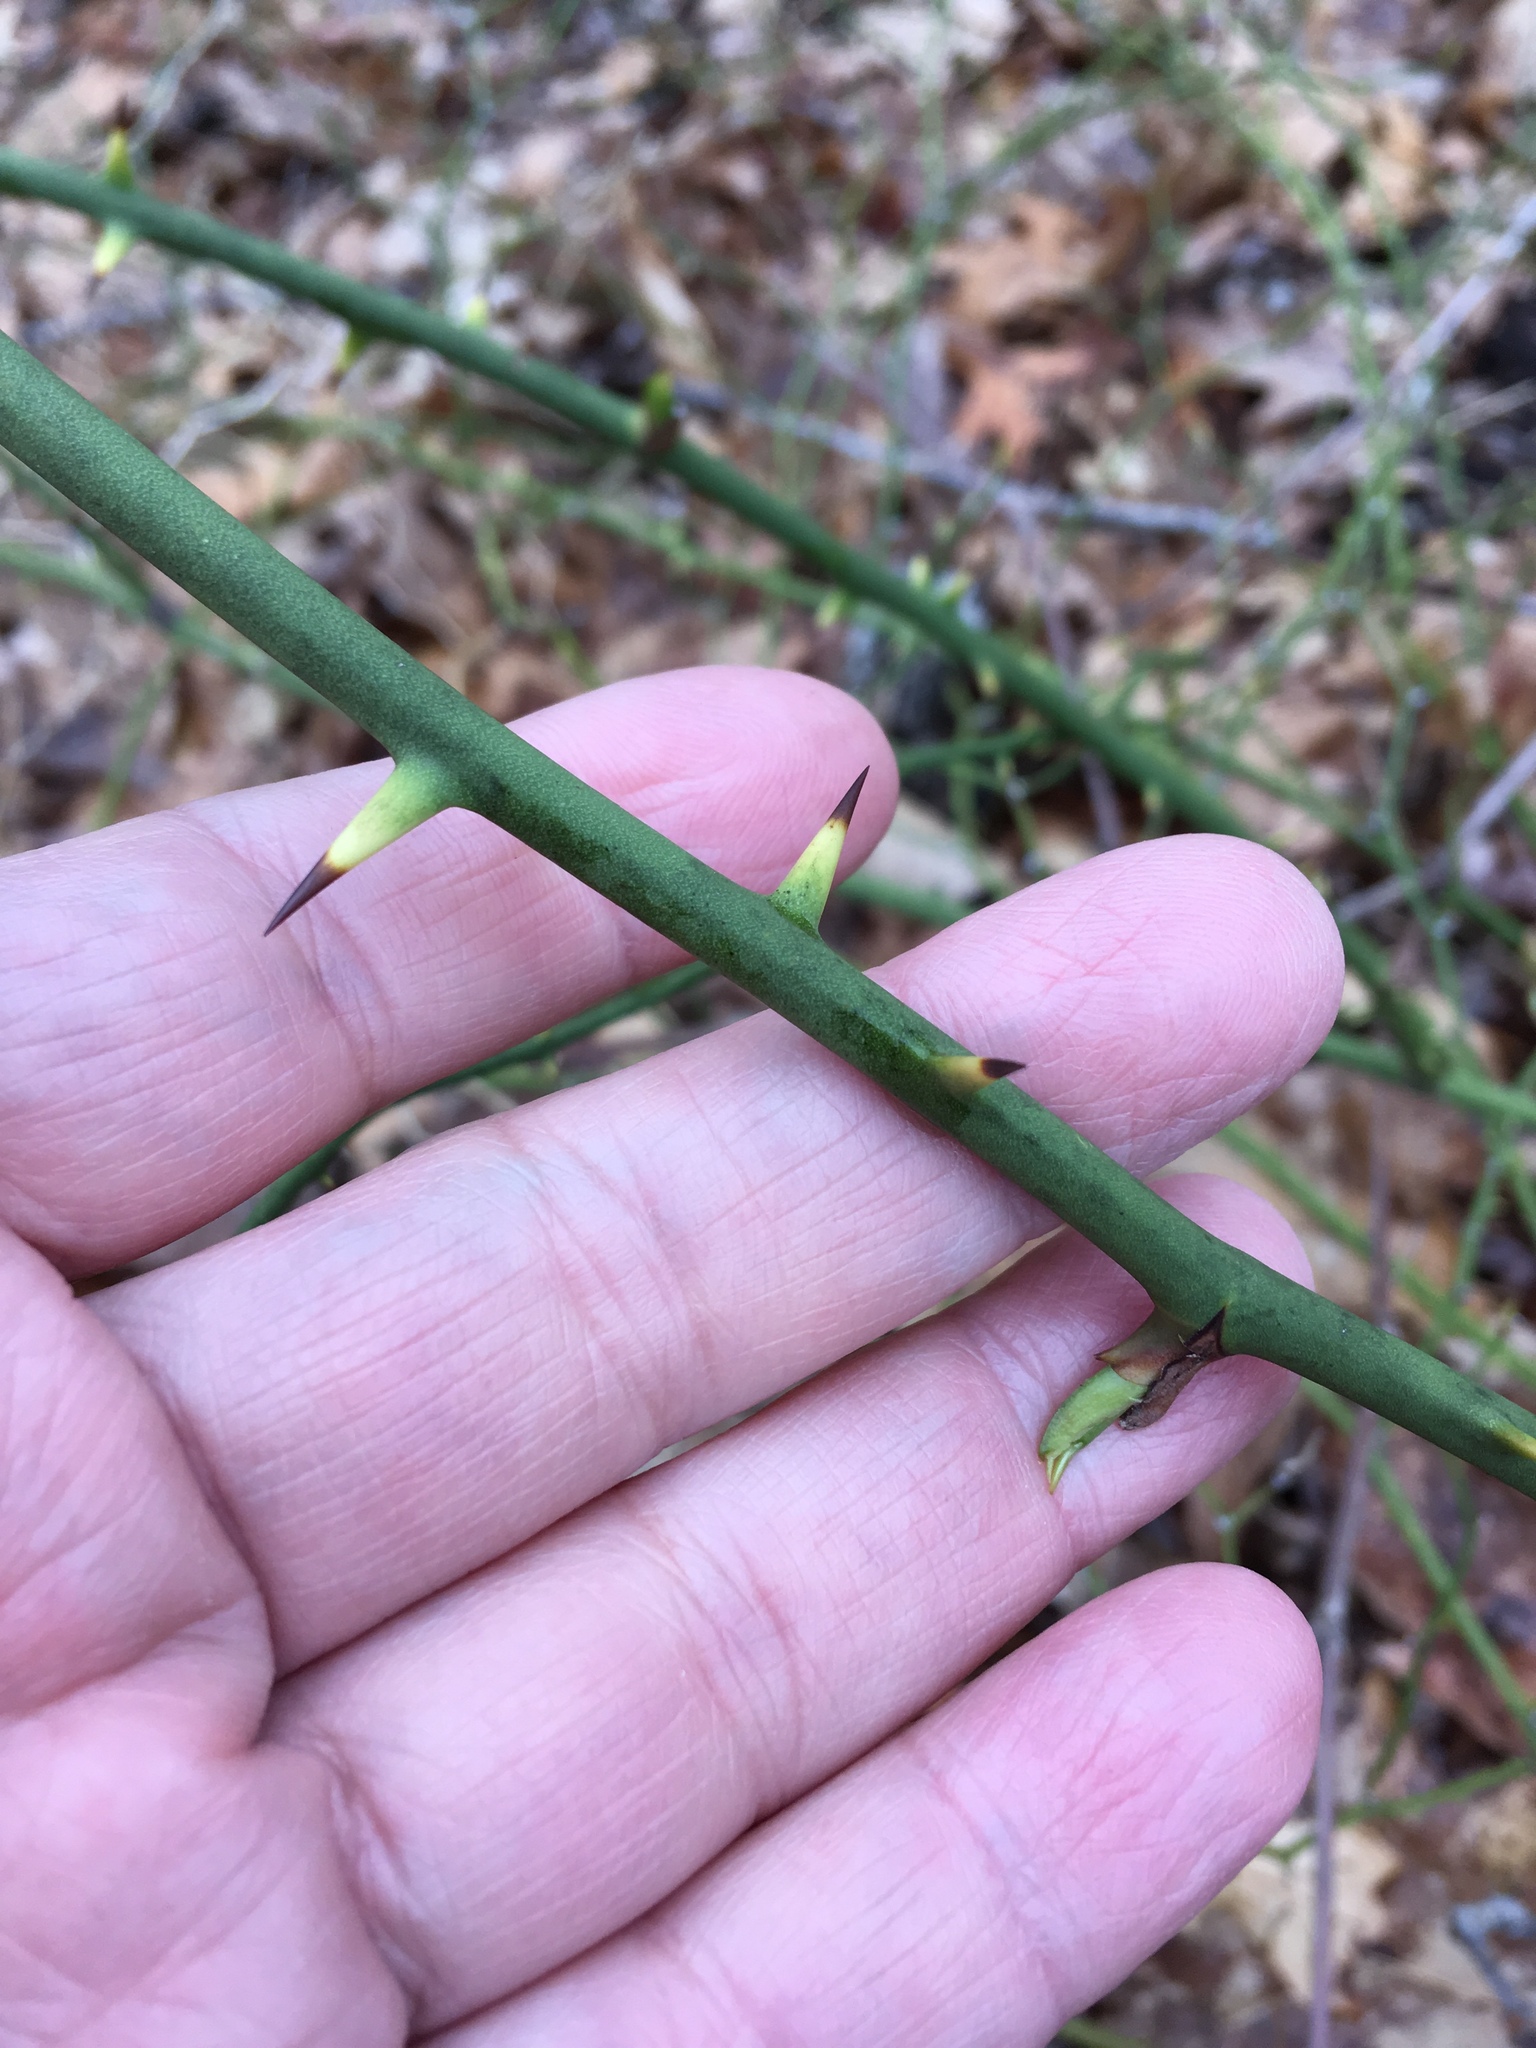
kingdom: Plantae
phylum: Tracheophyta
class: Liliopsida
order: Liliales
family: Smilacaceae
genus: Smilax
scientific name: Smilax rotundifolia
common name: Bullbriar
